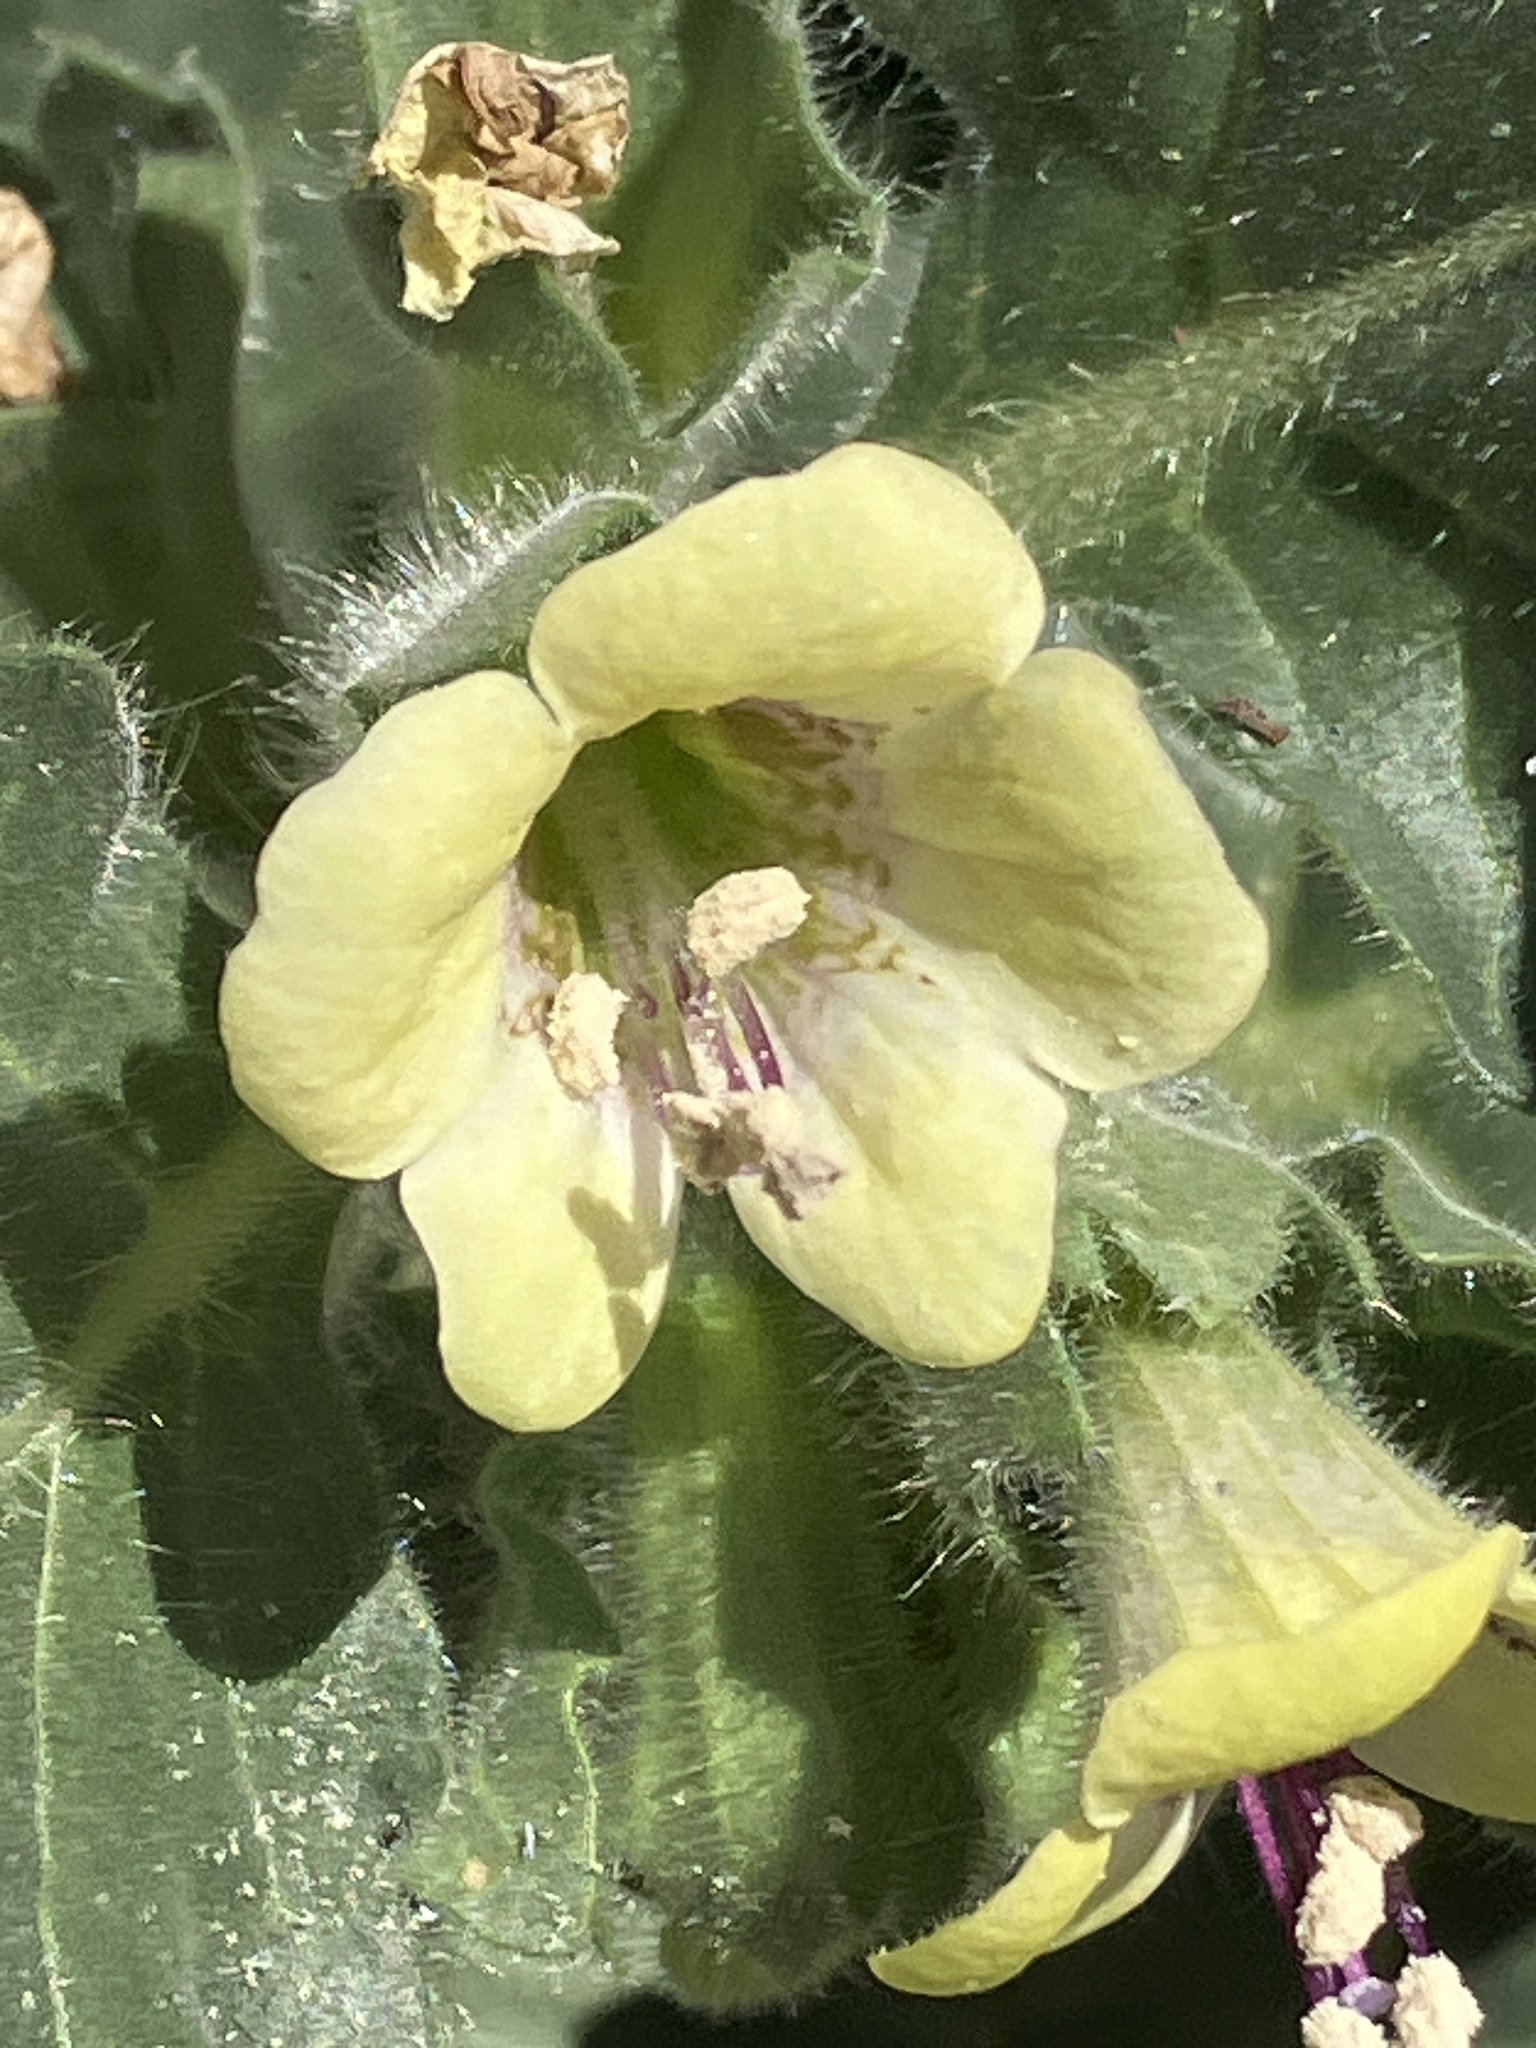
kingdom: Plantae
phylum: Tracheophyta
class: Magnoliopsida
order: Solanales
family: Solanaceae
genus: Hyoscyamus
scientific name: Hyoscyamus albus
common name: White henbane
